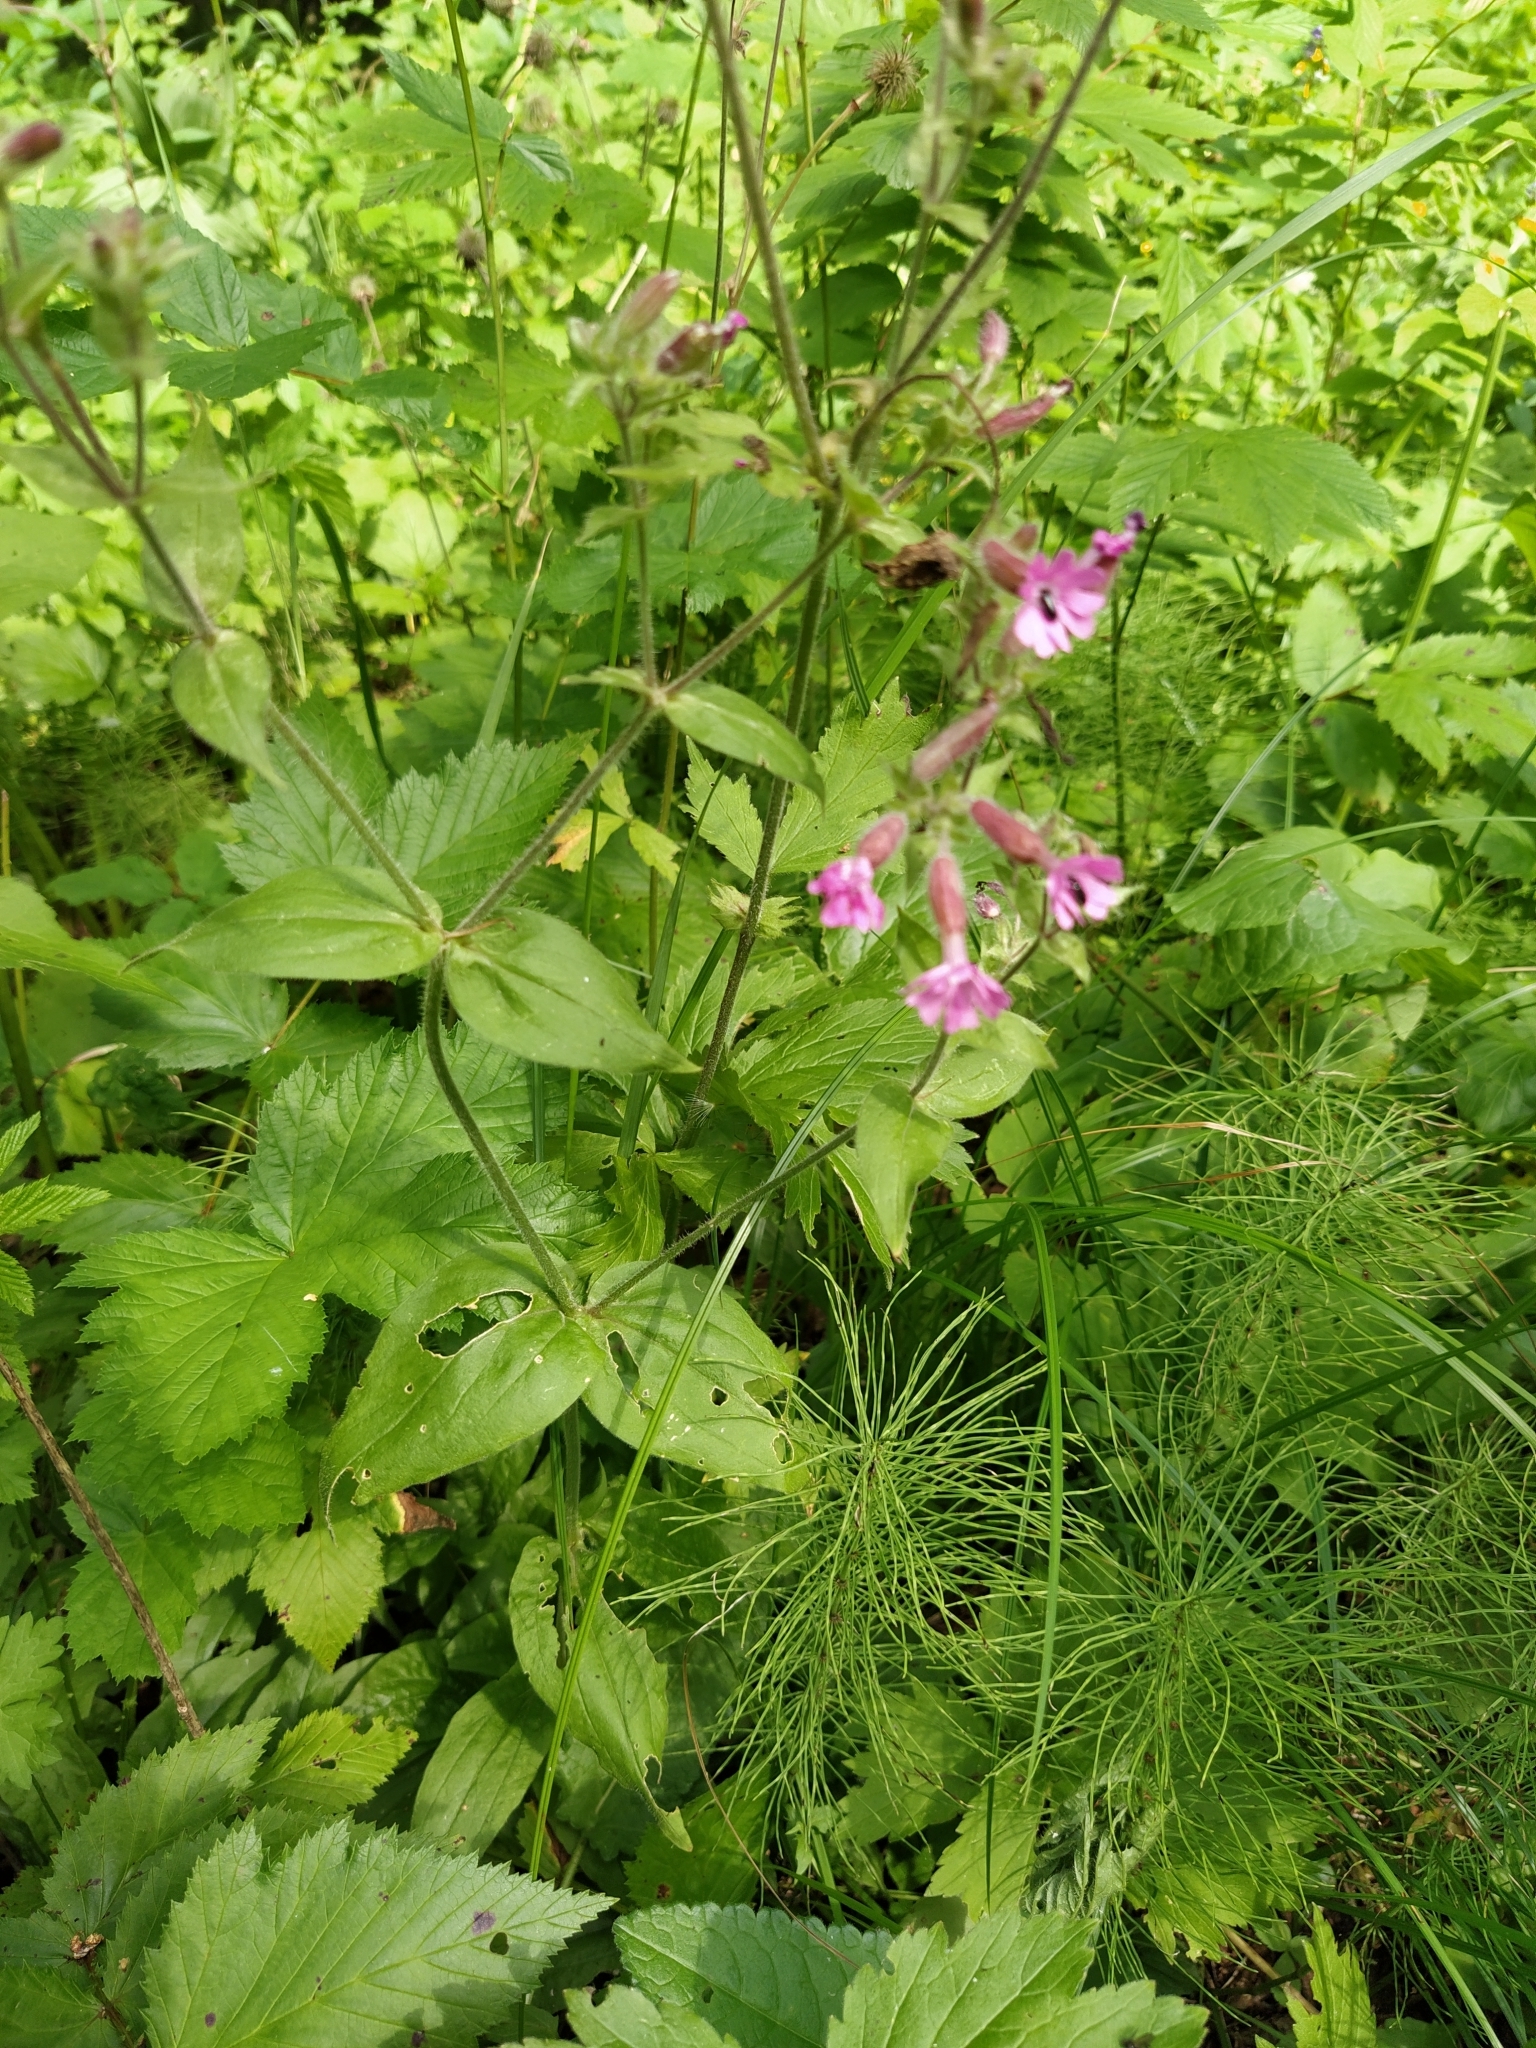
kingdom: Plantae
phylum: Tracheophyta
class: Magnoliopsida
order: Caryophyllales
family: Caryophyllaceae
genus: Silene
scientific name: Silene dioica
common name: Red campion
